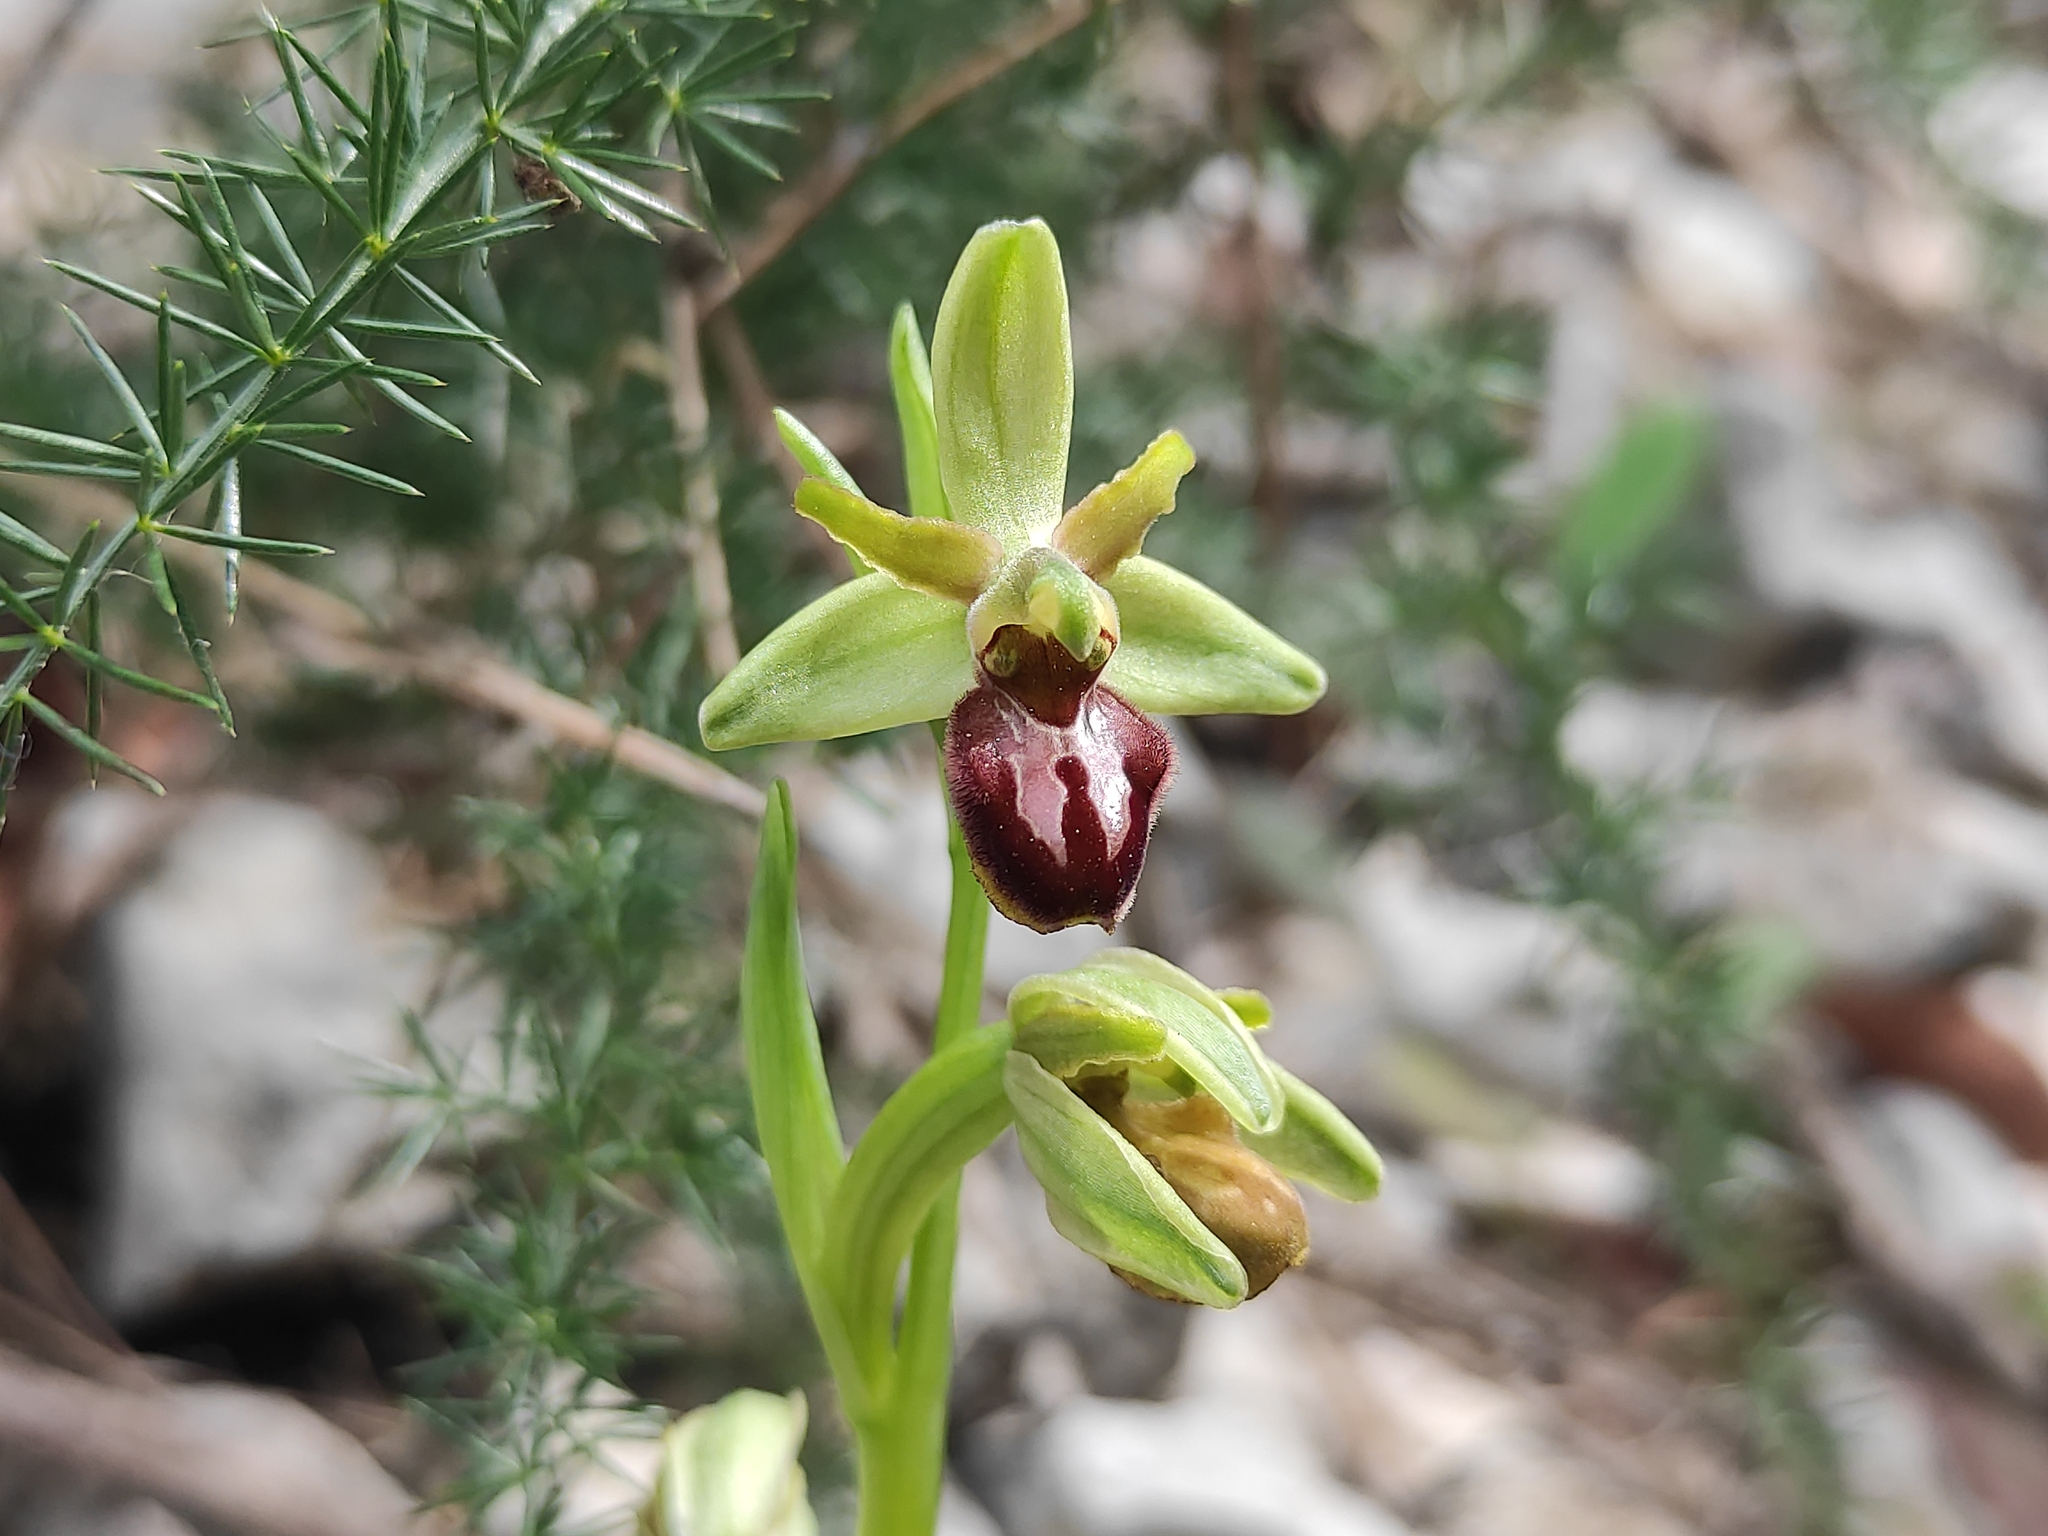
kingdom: Plantae
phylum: Tracheophyta
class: Liliopsida
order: Asparagales
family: Orchidaceae
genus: Ophrys
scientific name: Ophrys sphegodes
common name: Early spider-orchid
